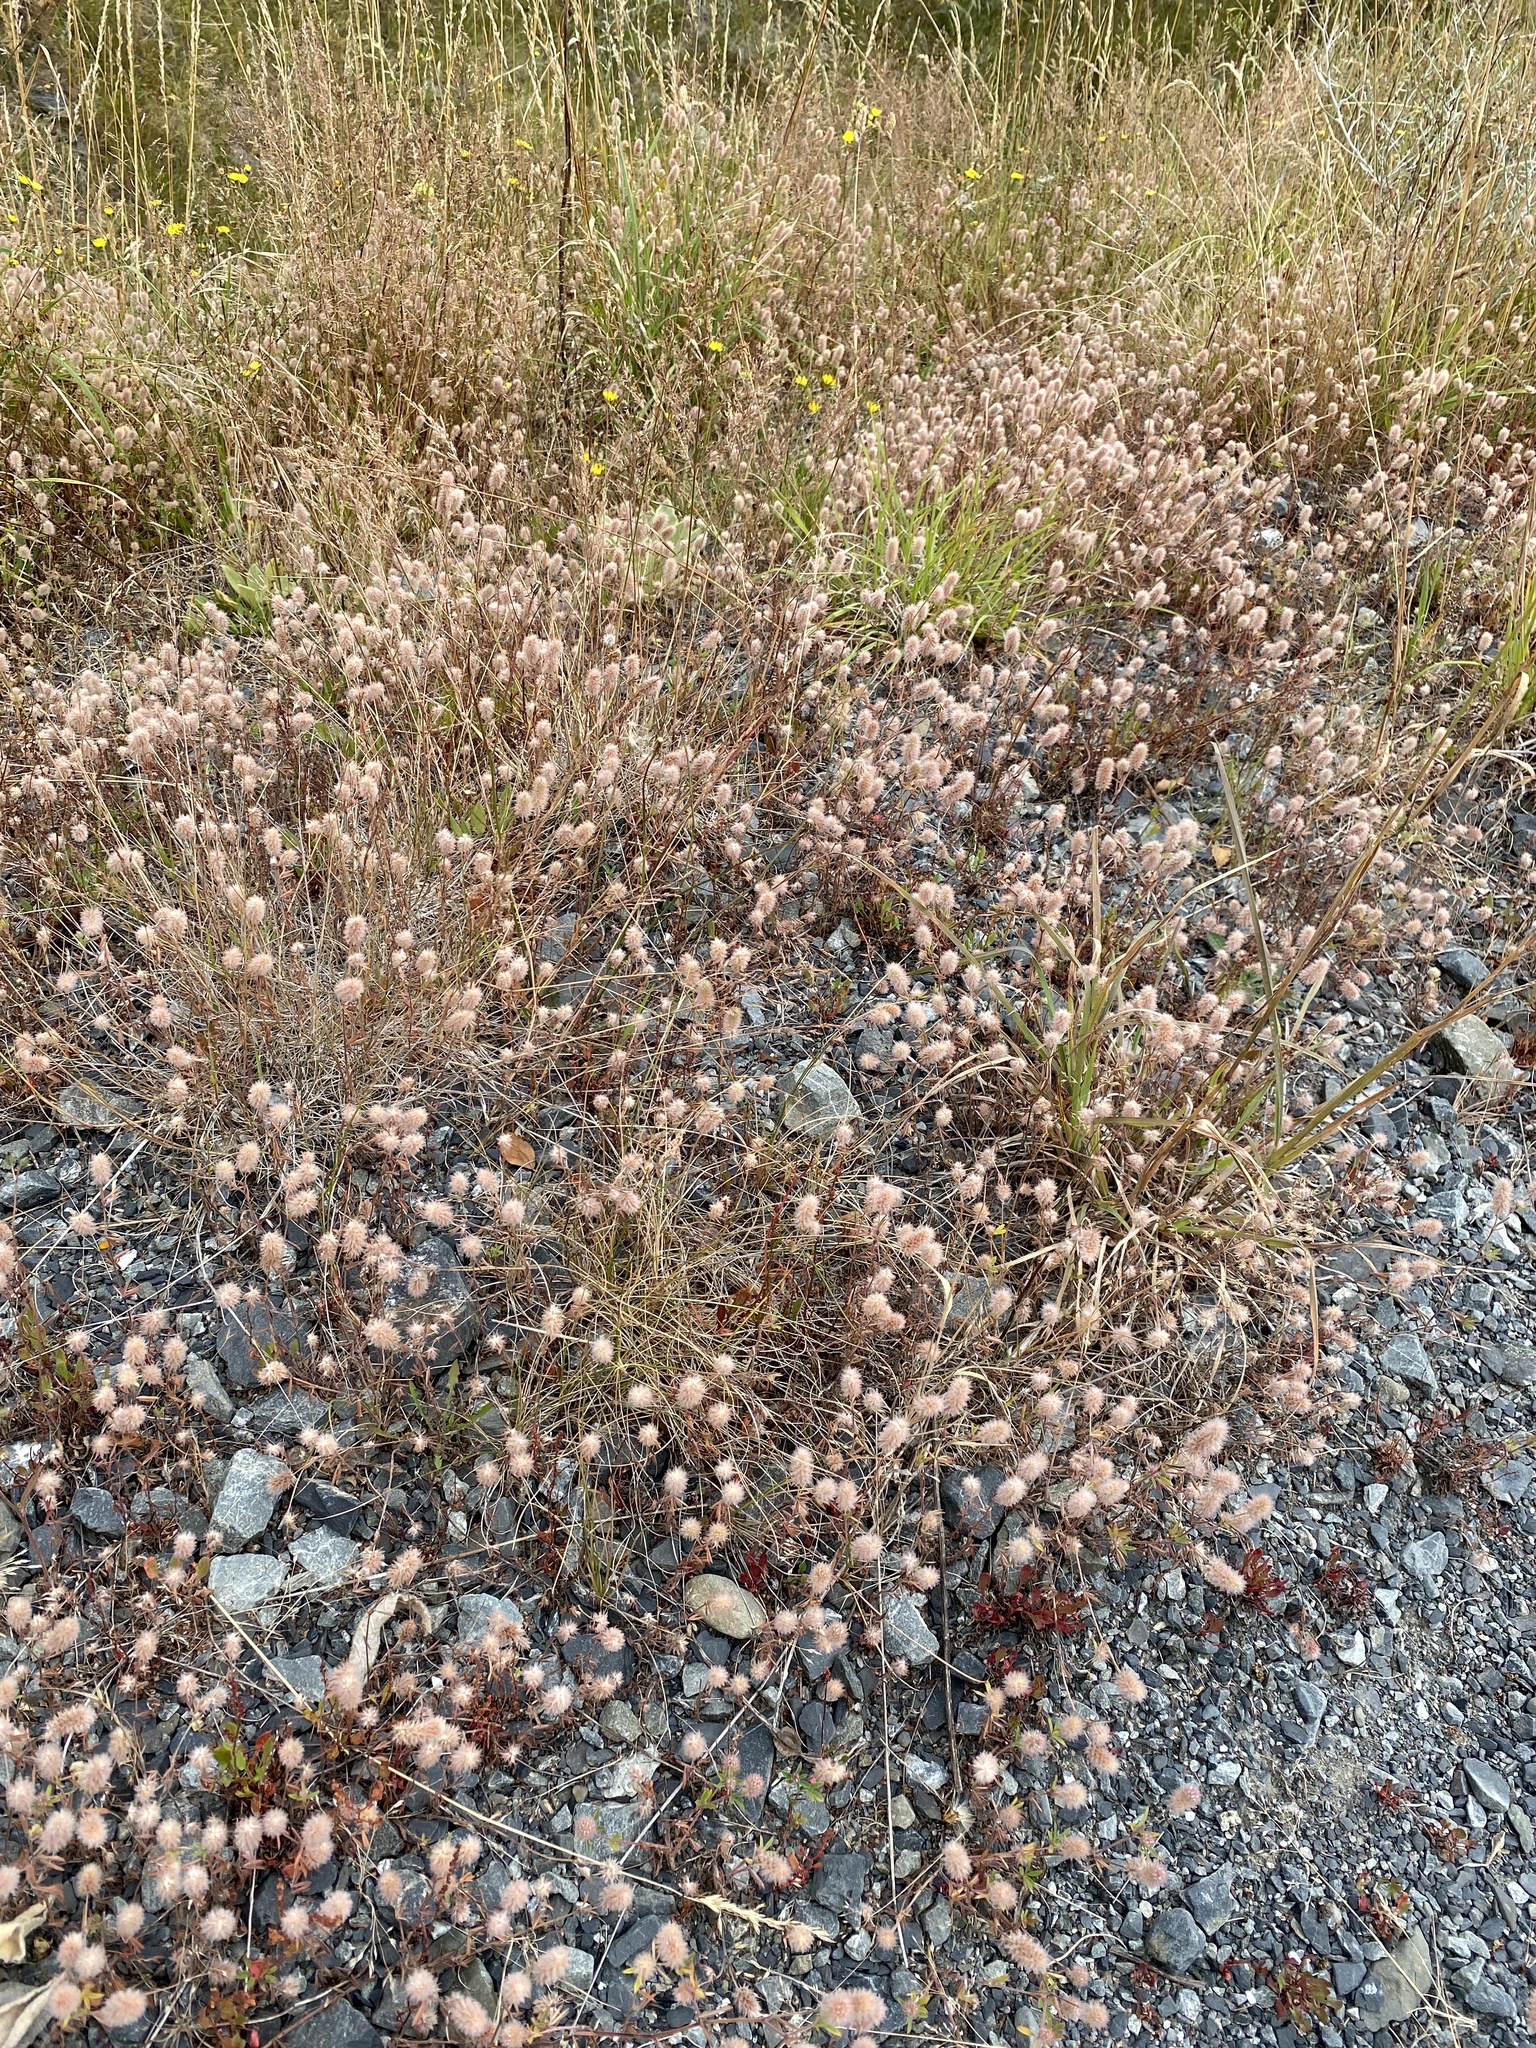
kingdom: Plantae
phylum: Tracheophyta
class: Magnoliopsida
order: Fabales
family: Fabaceae
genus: Trifolium
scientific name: Trifolium arvense
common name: Hare's-foot clover
